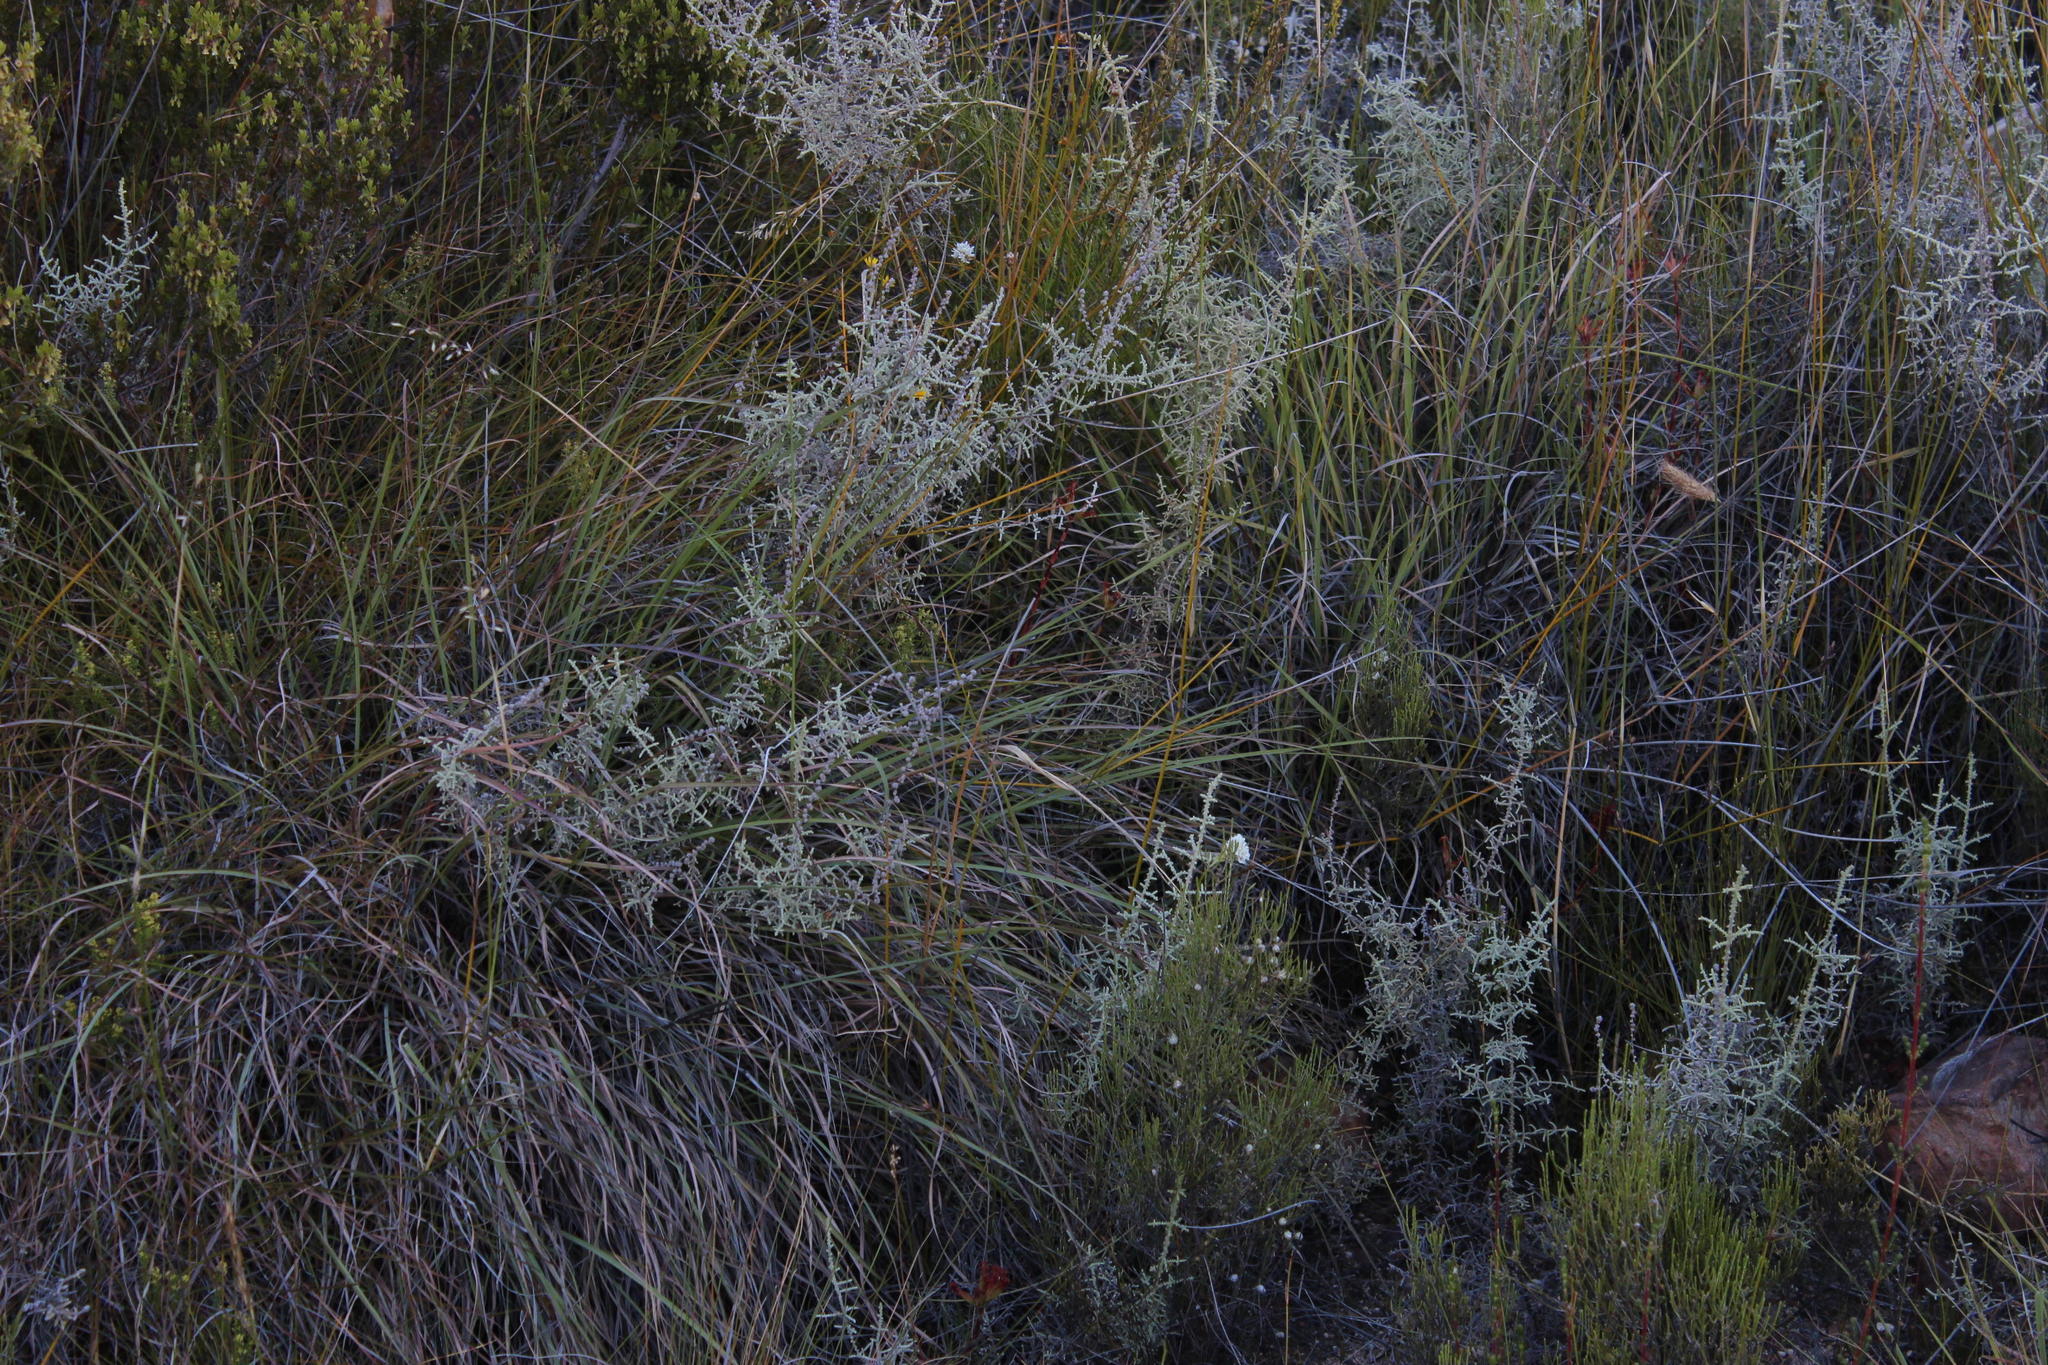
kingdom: Plantae
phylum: Tracheophyta
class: Magnoliopsida
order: Asterales
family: Asteraceae
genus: Seriphium
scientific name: Seriphium plumosum
